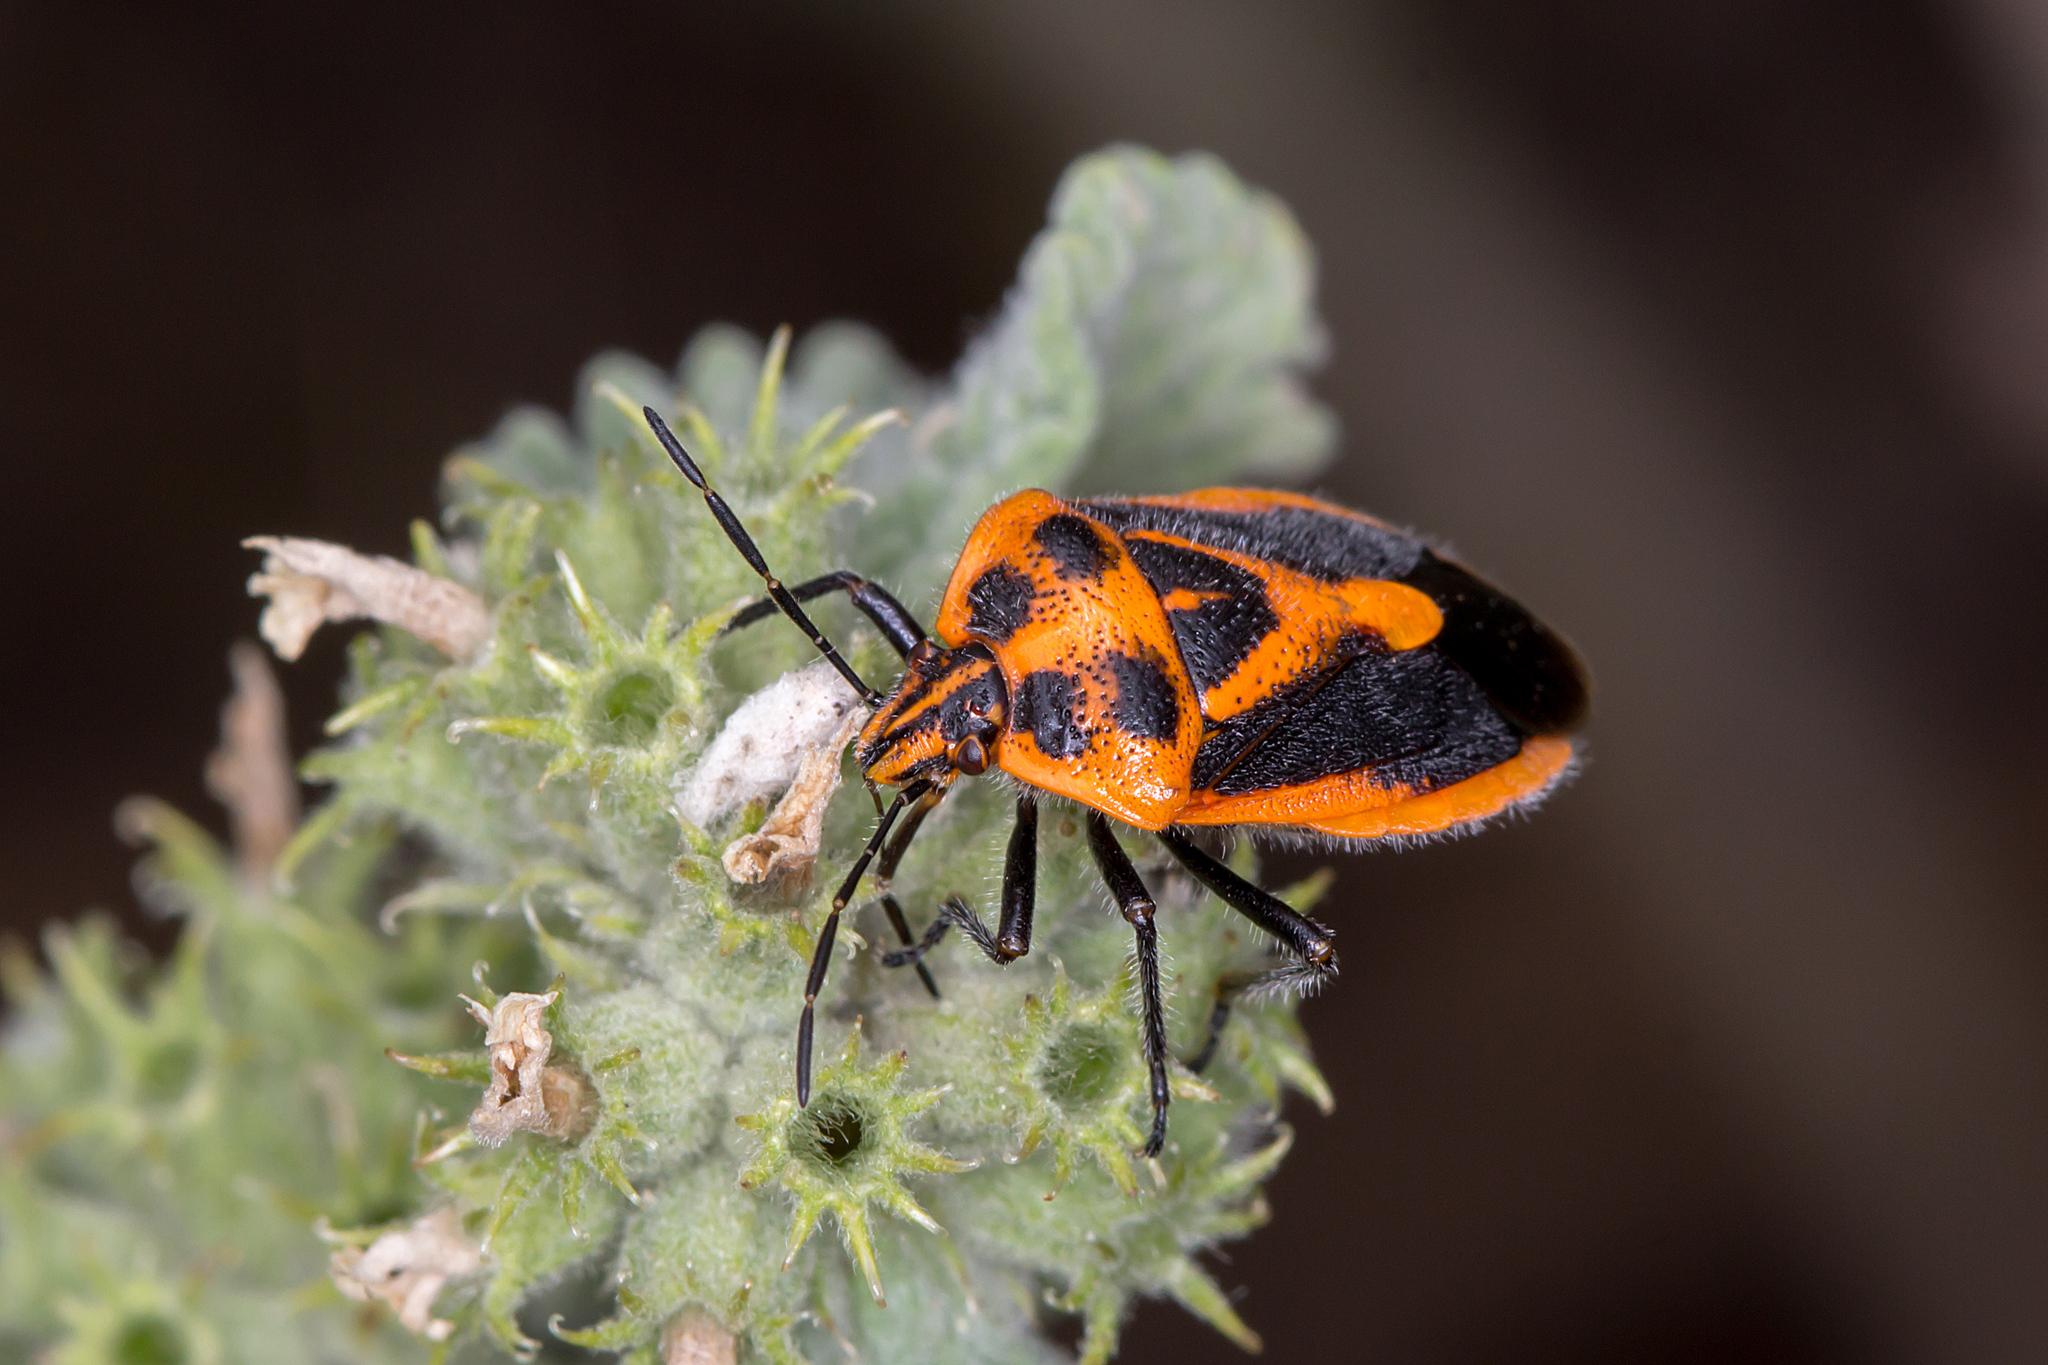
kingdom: Animalia
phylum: Arthropoda
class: Insecta
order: Hemiptera
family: Pentatomidae
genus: Agonoscelis
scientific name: Agonoscelis rutila
